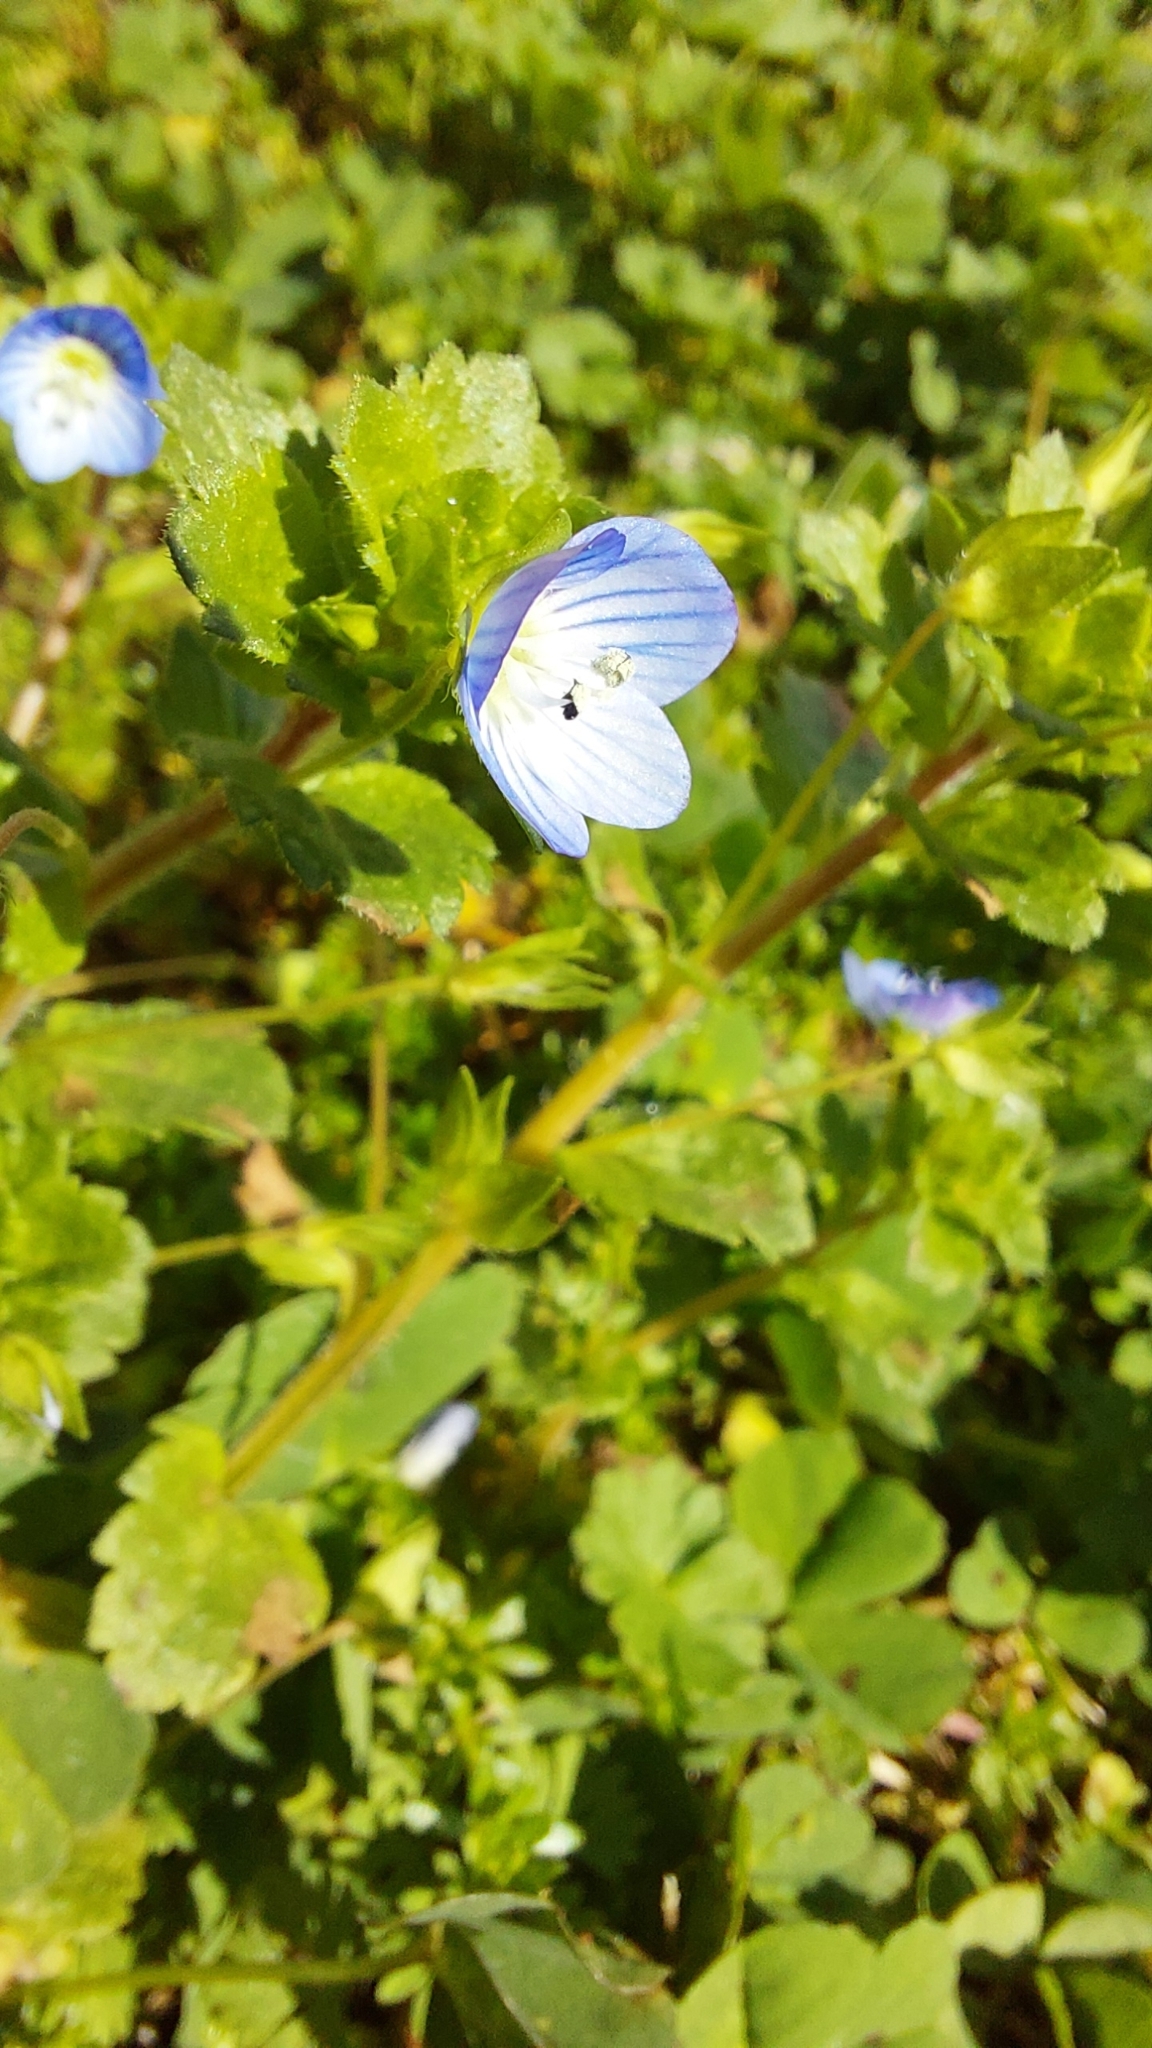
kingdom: Plantae
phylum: Tracheophyta
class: Magnoliopsida
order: Lamiales
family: Plantaginaceae
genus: Veronica
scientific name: Veronica persica
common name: Common field-speedwell
